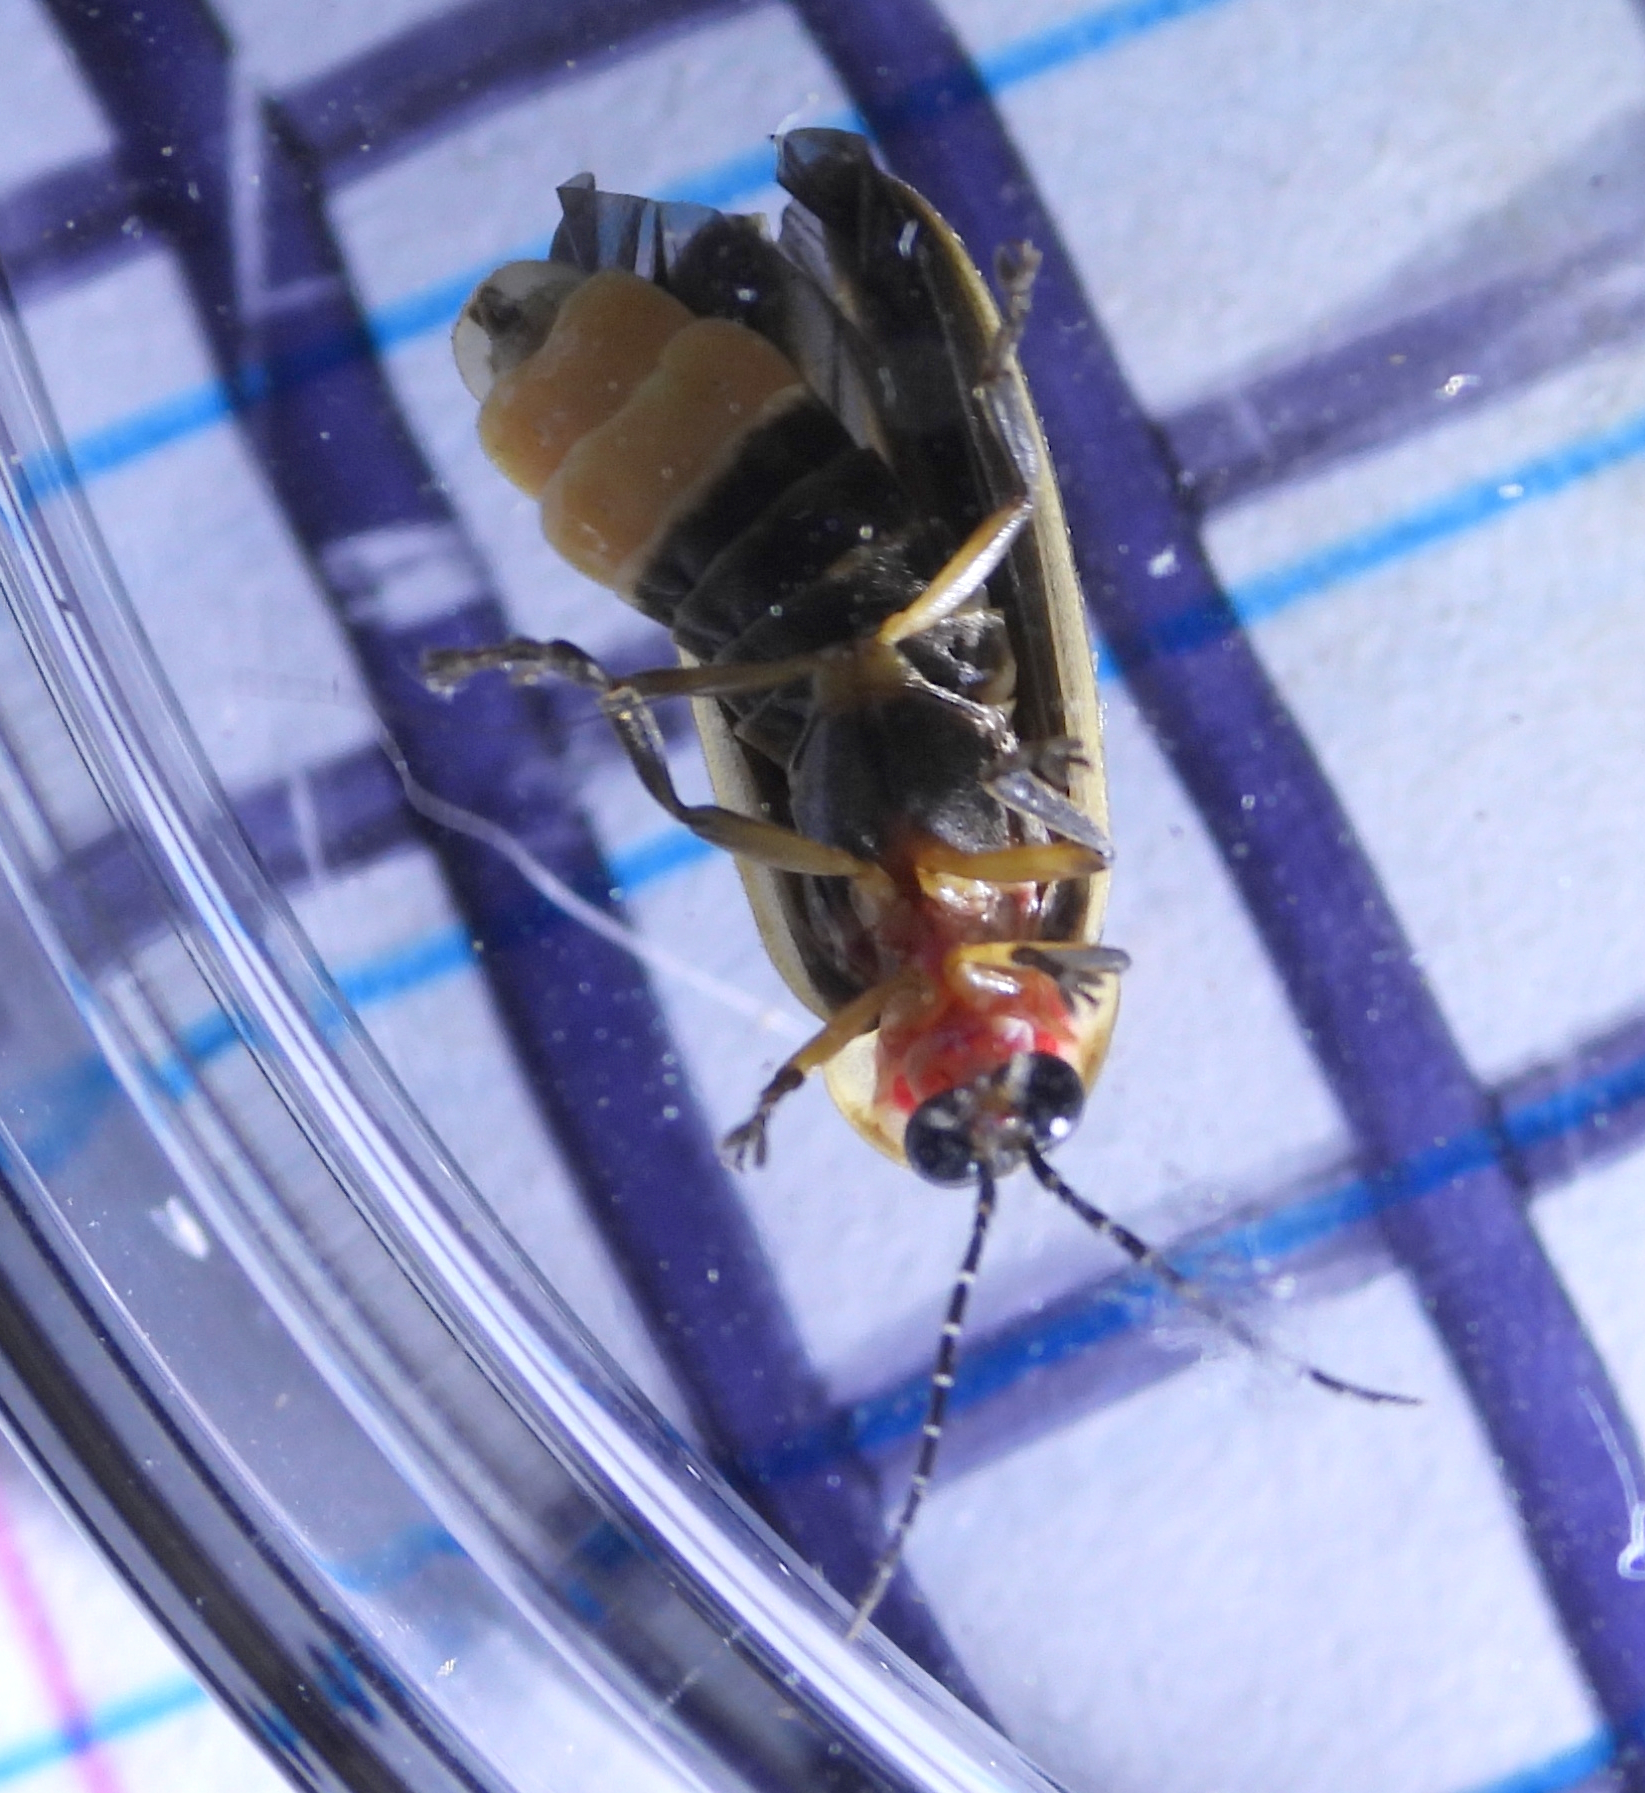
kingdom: Animalia
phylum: Arthropoda
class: Insecta
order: Coleoptera
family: Lampyridae
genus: Photinus
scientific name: Photinus pyralis
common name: Big dipper firefly
